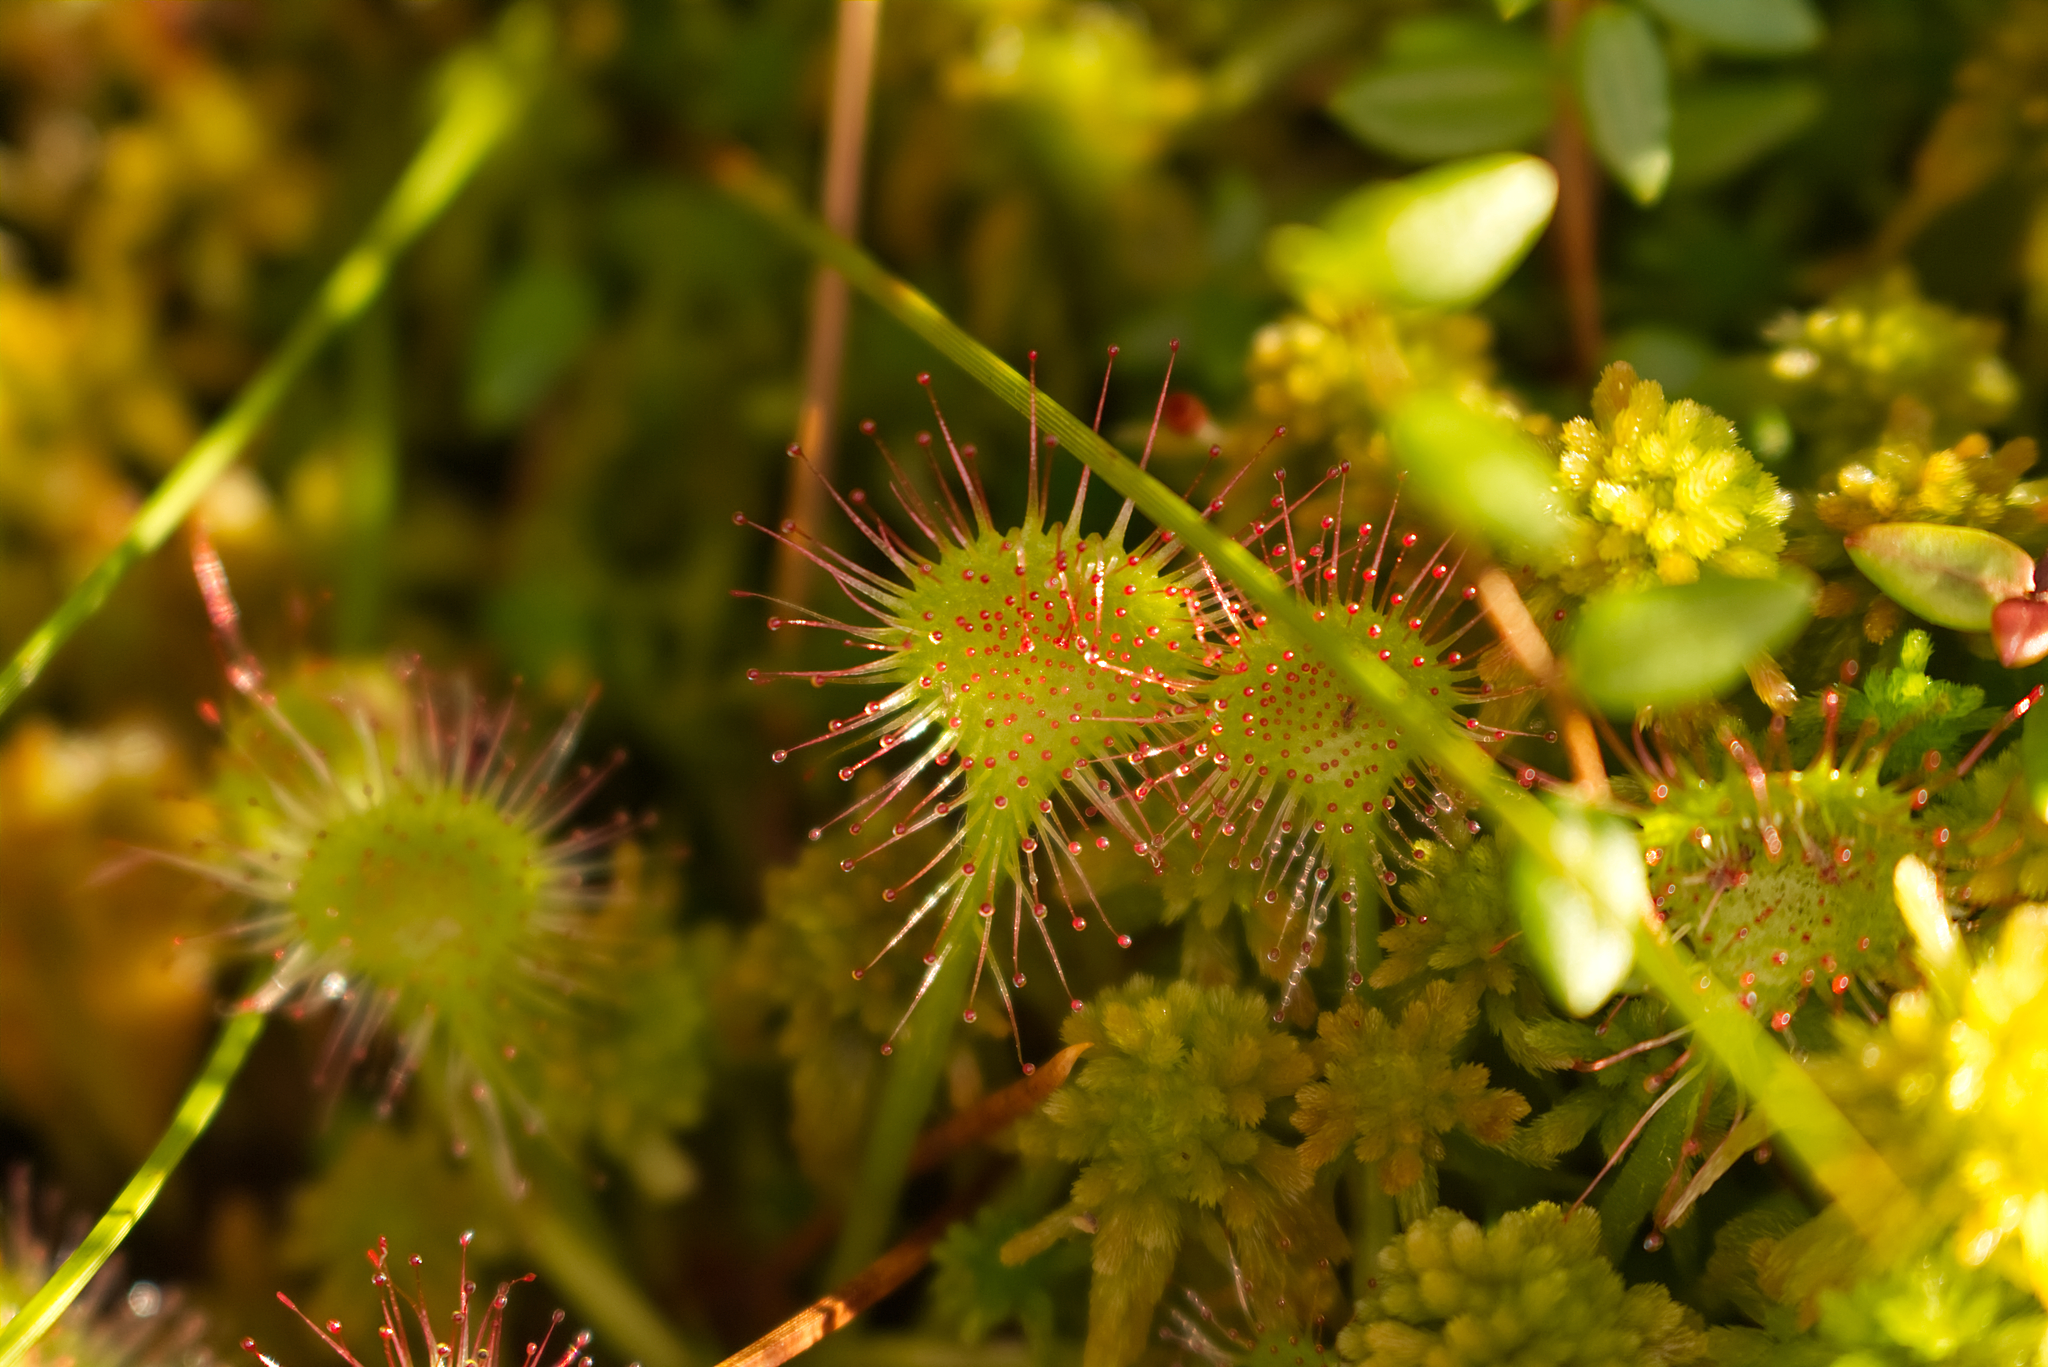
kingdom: Plantae
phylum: Tracheophyta
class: Magnoliopsida
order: Caryophyllales
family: Droseraceae
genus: Drosera
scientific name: Drosera rotundifolia
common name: Round-leaved sundew
